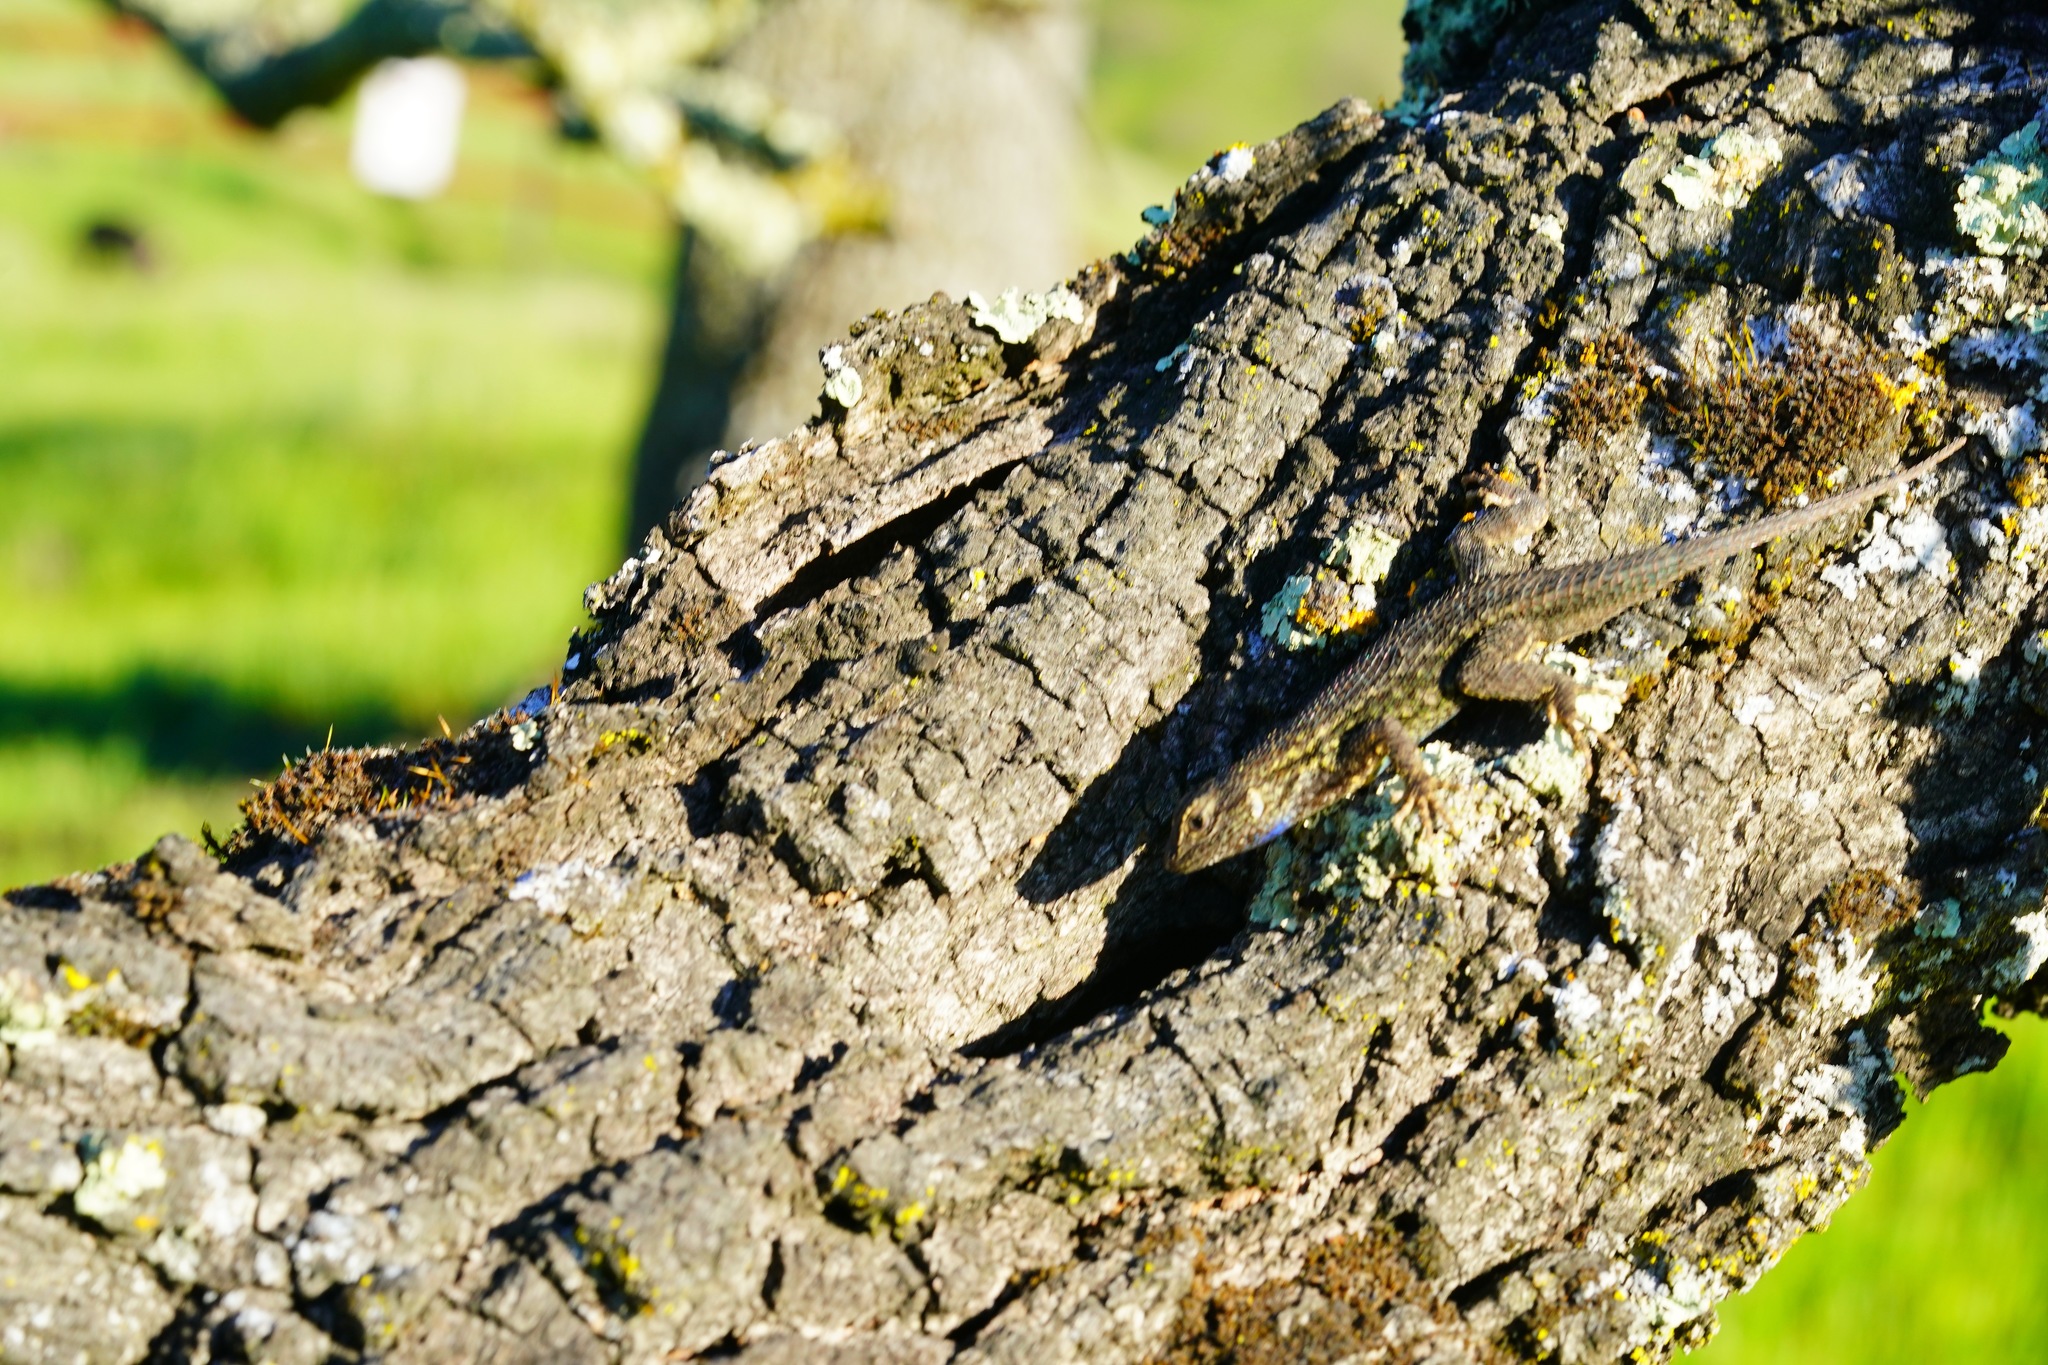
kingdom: Animalia
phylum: Chordata
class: Squamata
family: Phrynosomatidae
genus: Sceloporus
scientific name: Sceloporus occidentalis
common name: Western fence lizard
